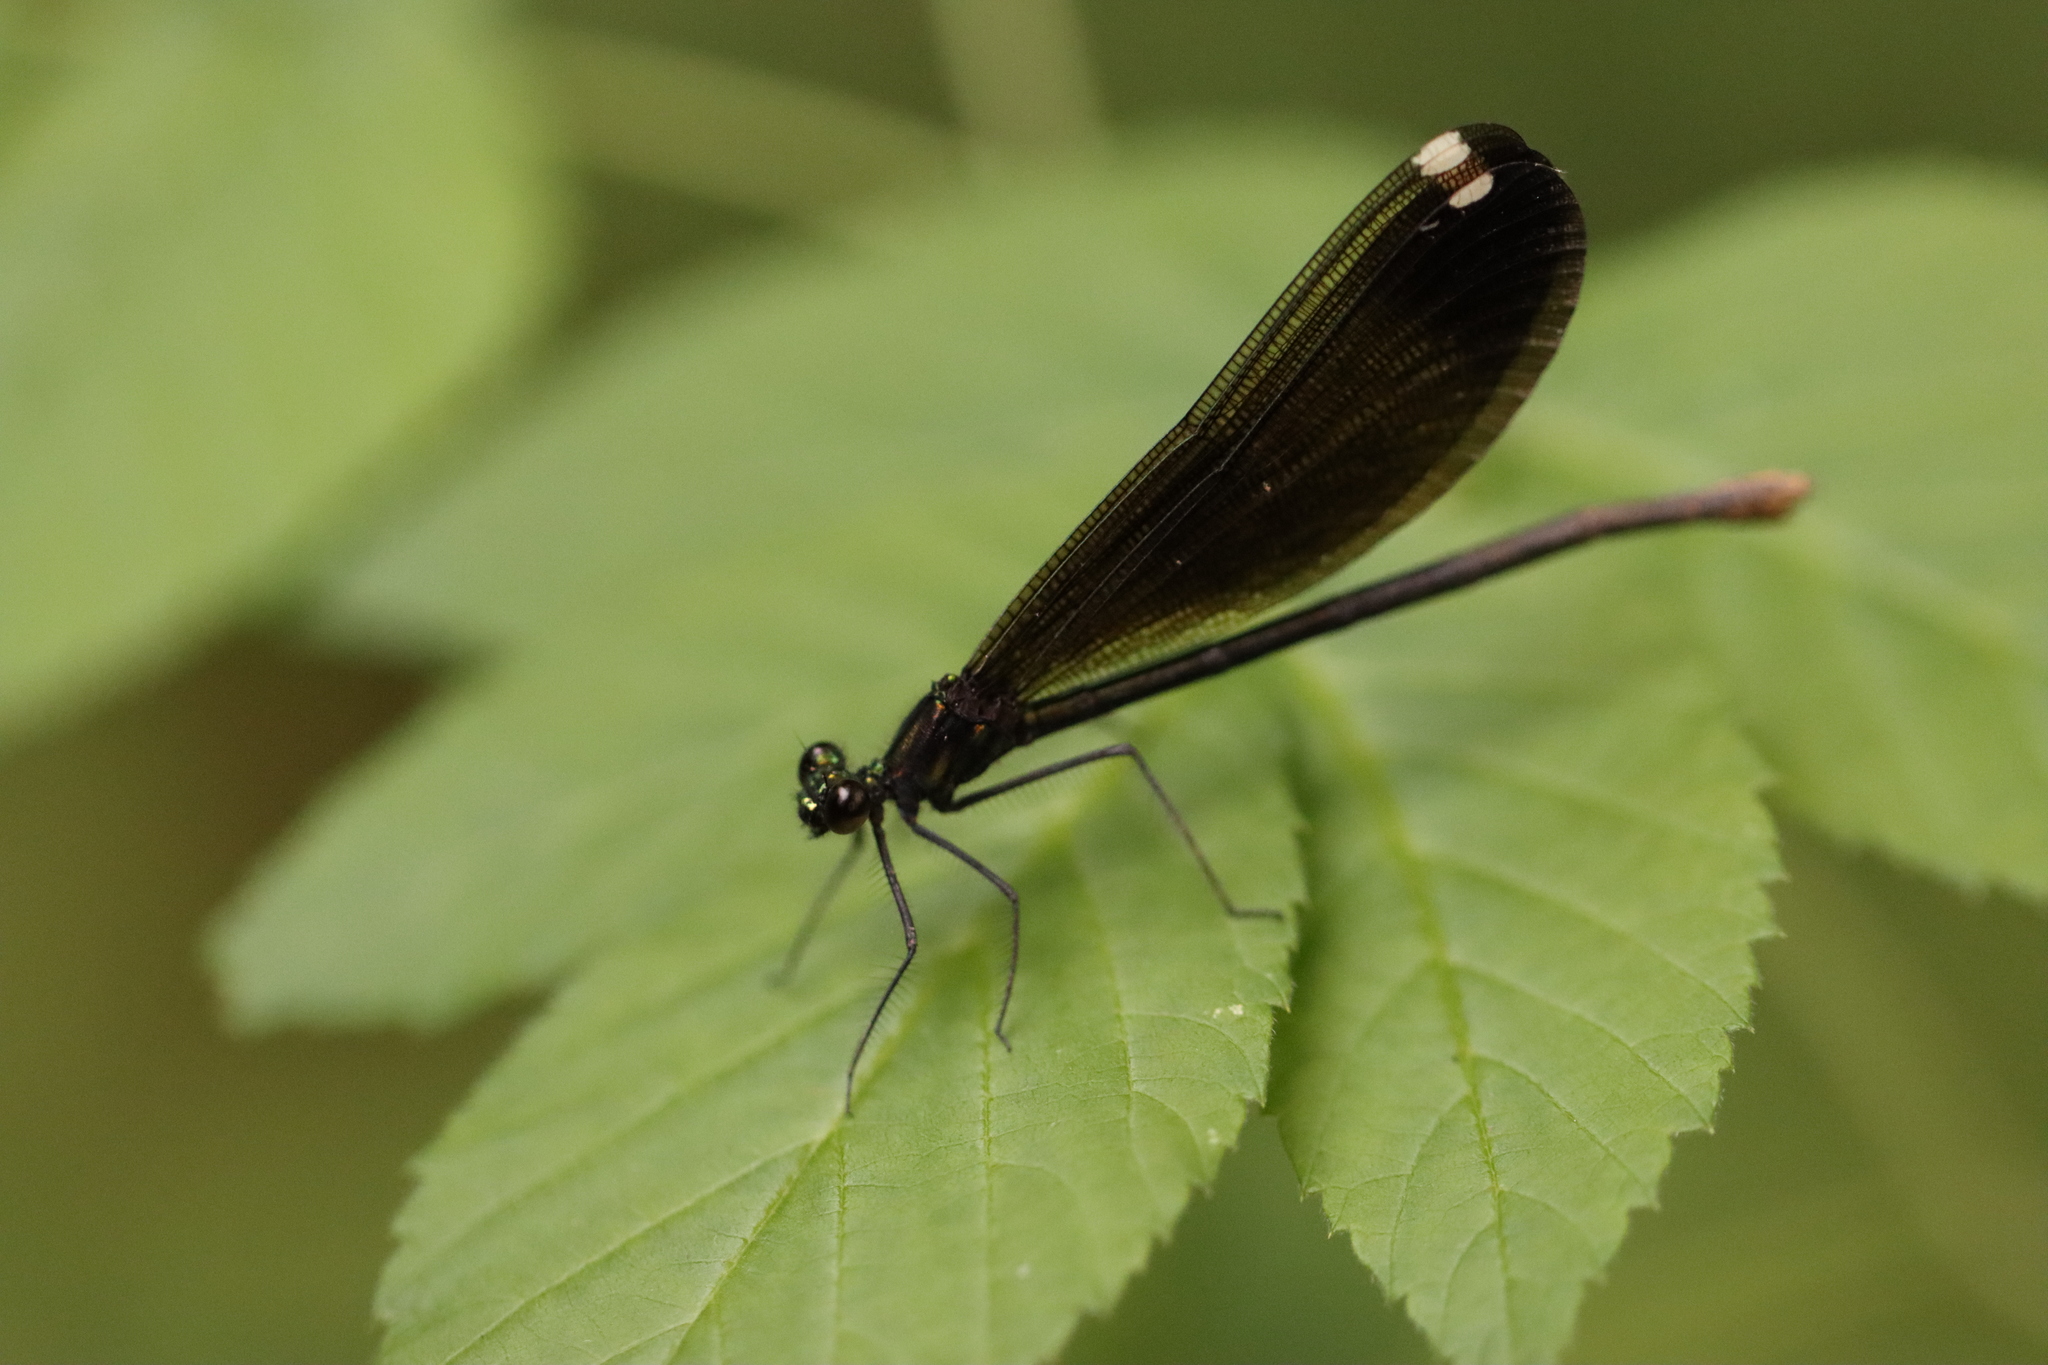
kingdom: Animalia
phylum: Arthropoda
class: Insecta
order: Odonata
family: Calopterygidae
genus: Calopteryx
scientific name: Calopteryx maculata
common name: Ebony jewelwing
